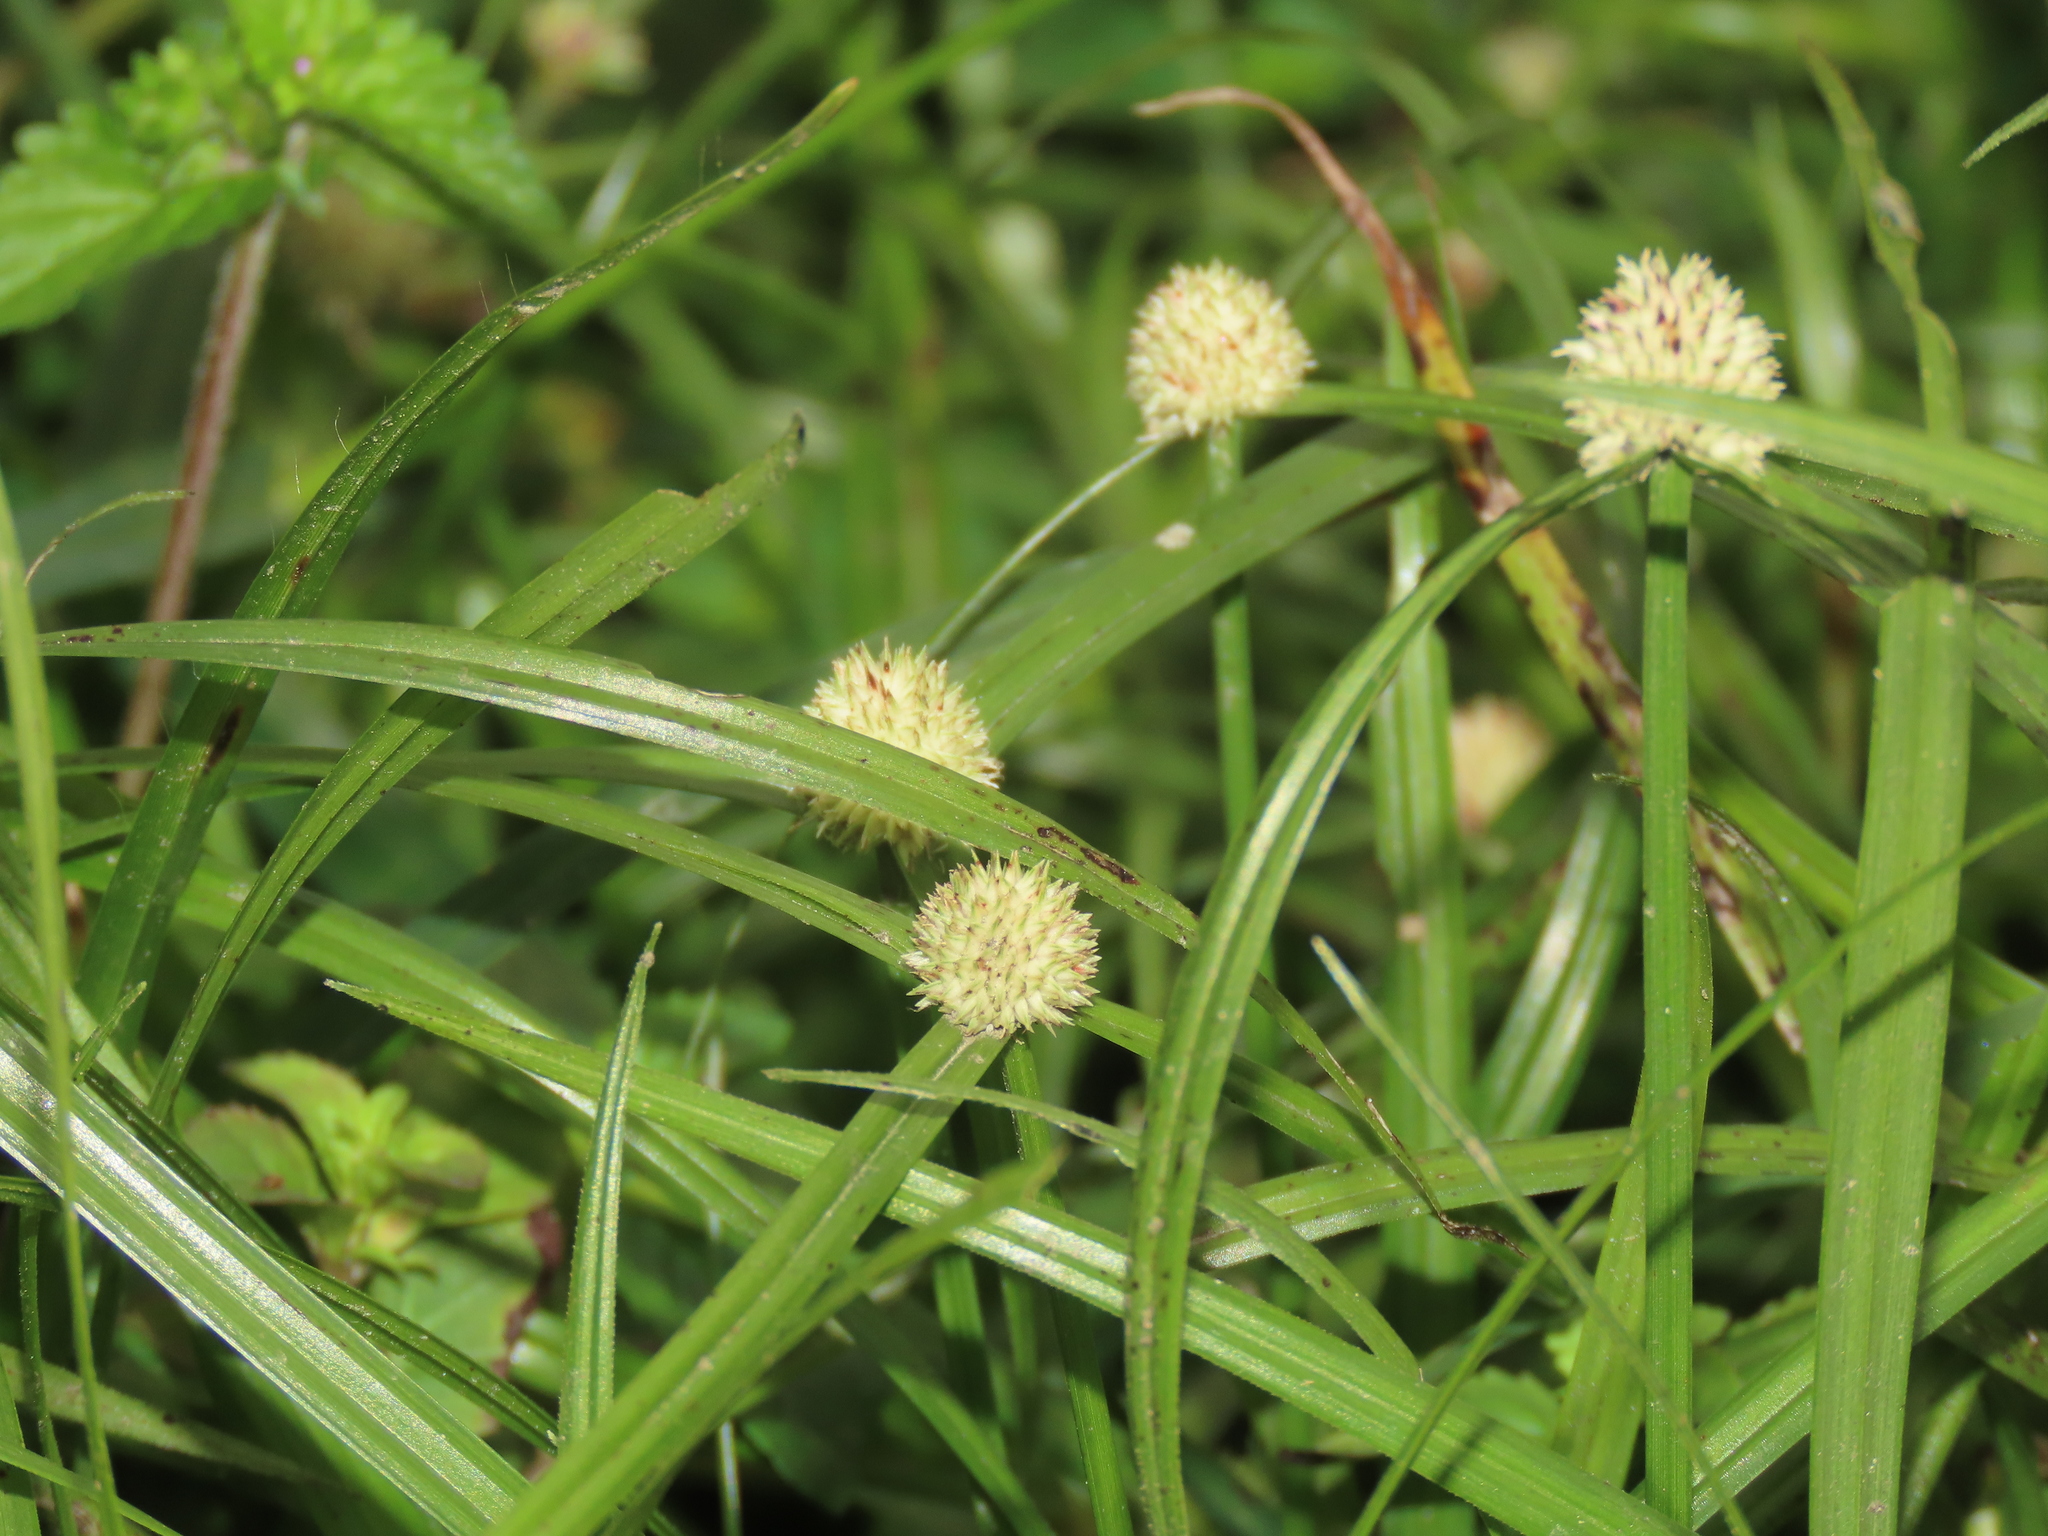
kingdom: Plantae
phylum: Tracheophyta
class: Liliopsida
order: Poales
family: Cyperaceae
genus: Cyperus
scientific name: Cyperus mindorensis
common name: Flatsedge
